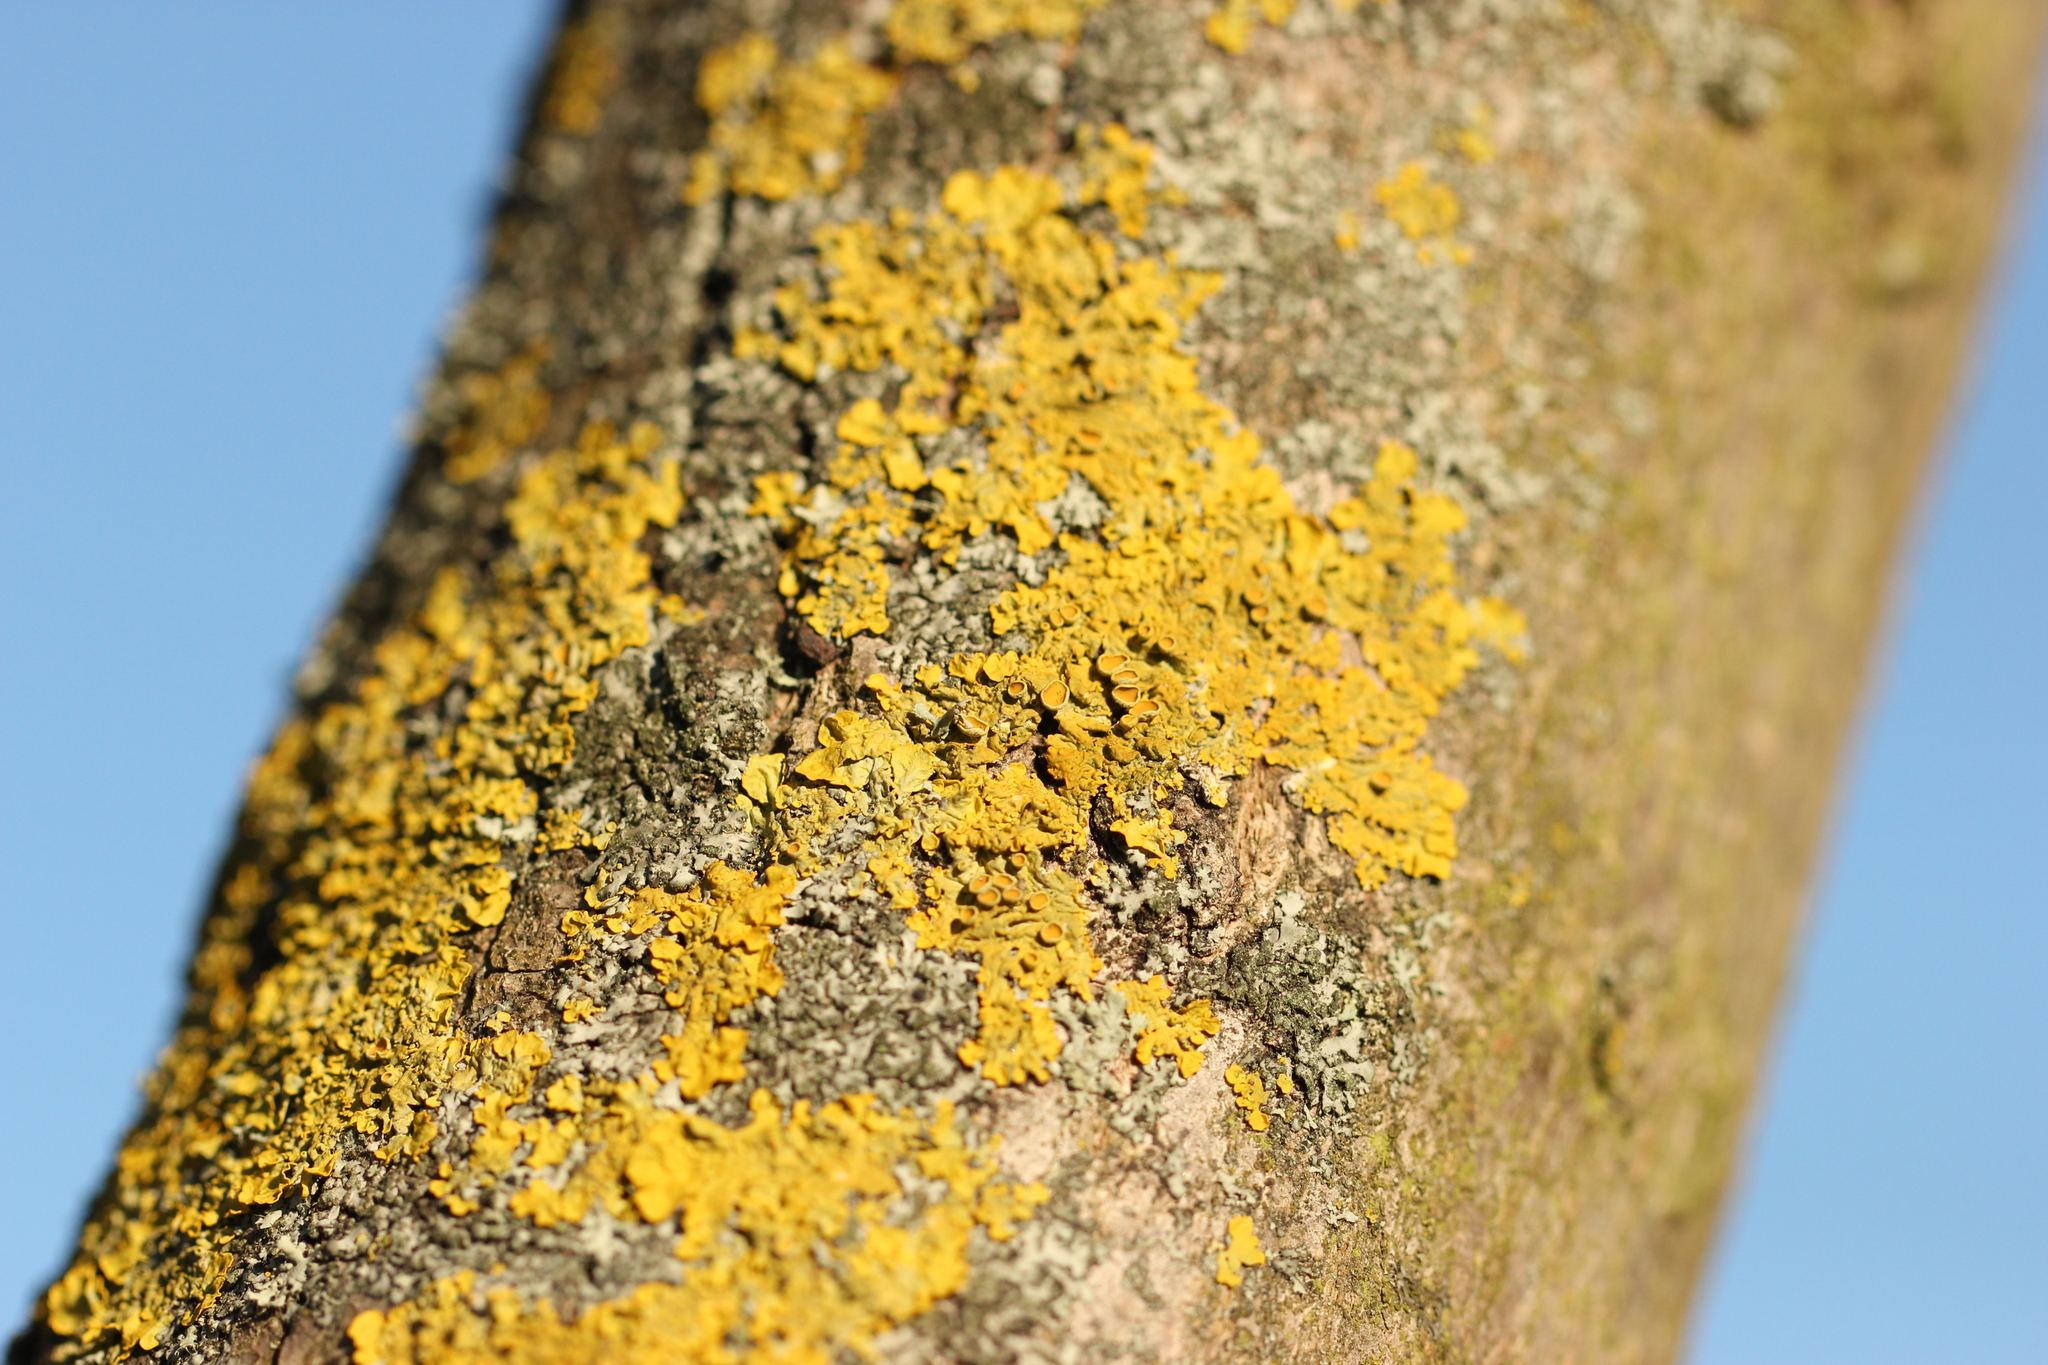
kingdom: Fungi
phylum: Ascomycota
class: Lecanoromycetes
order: Teloschistales
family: Teloschistaceae
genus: Xanthoria
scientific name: Xanthoria parietina
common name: Common orange lichen
